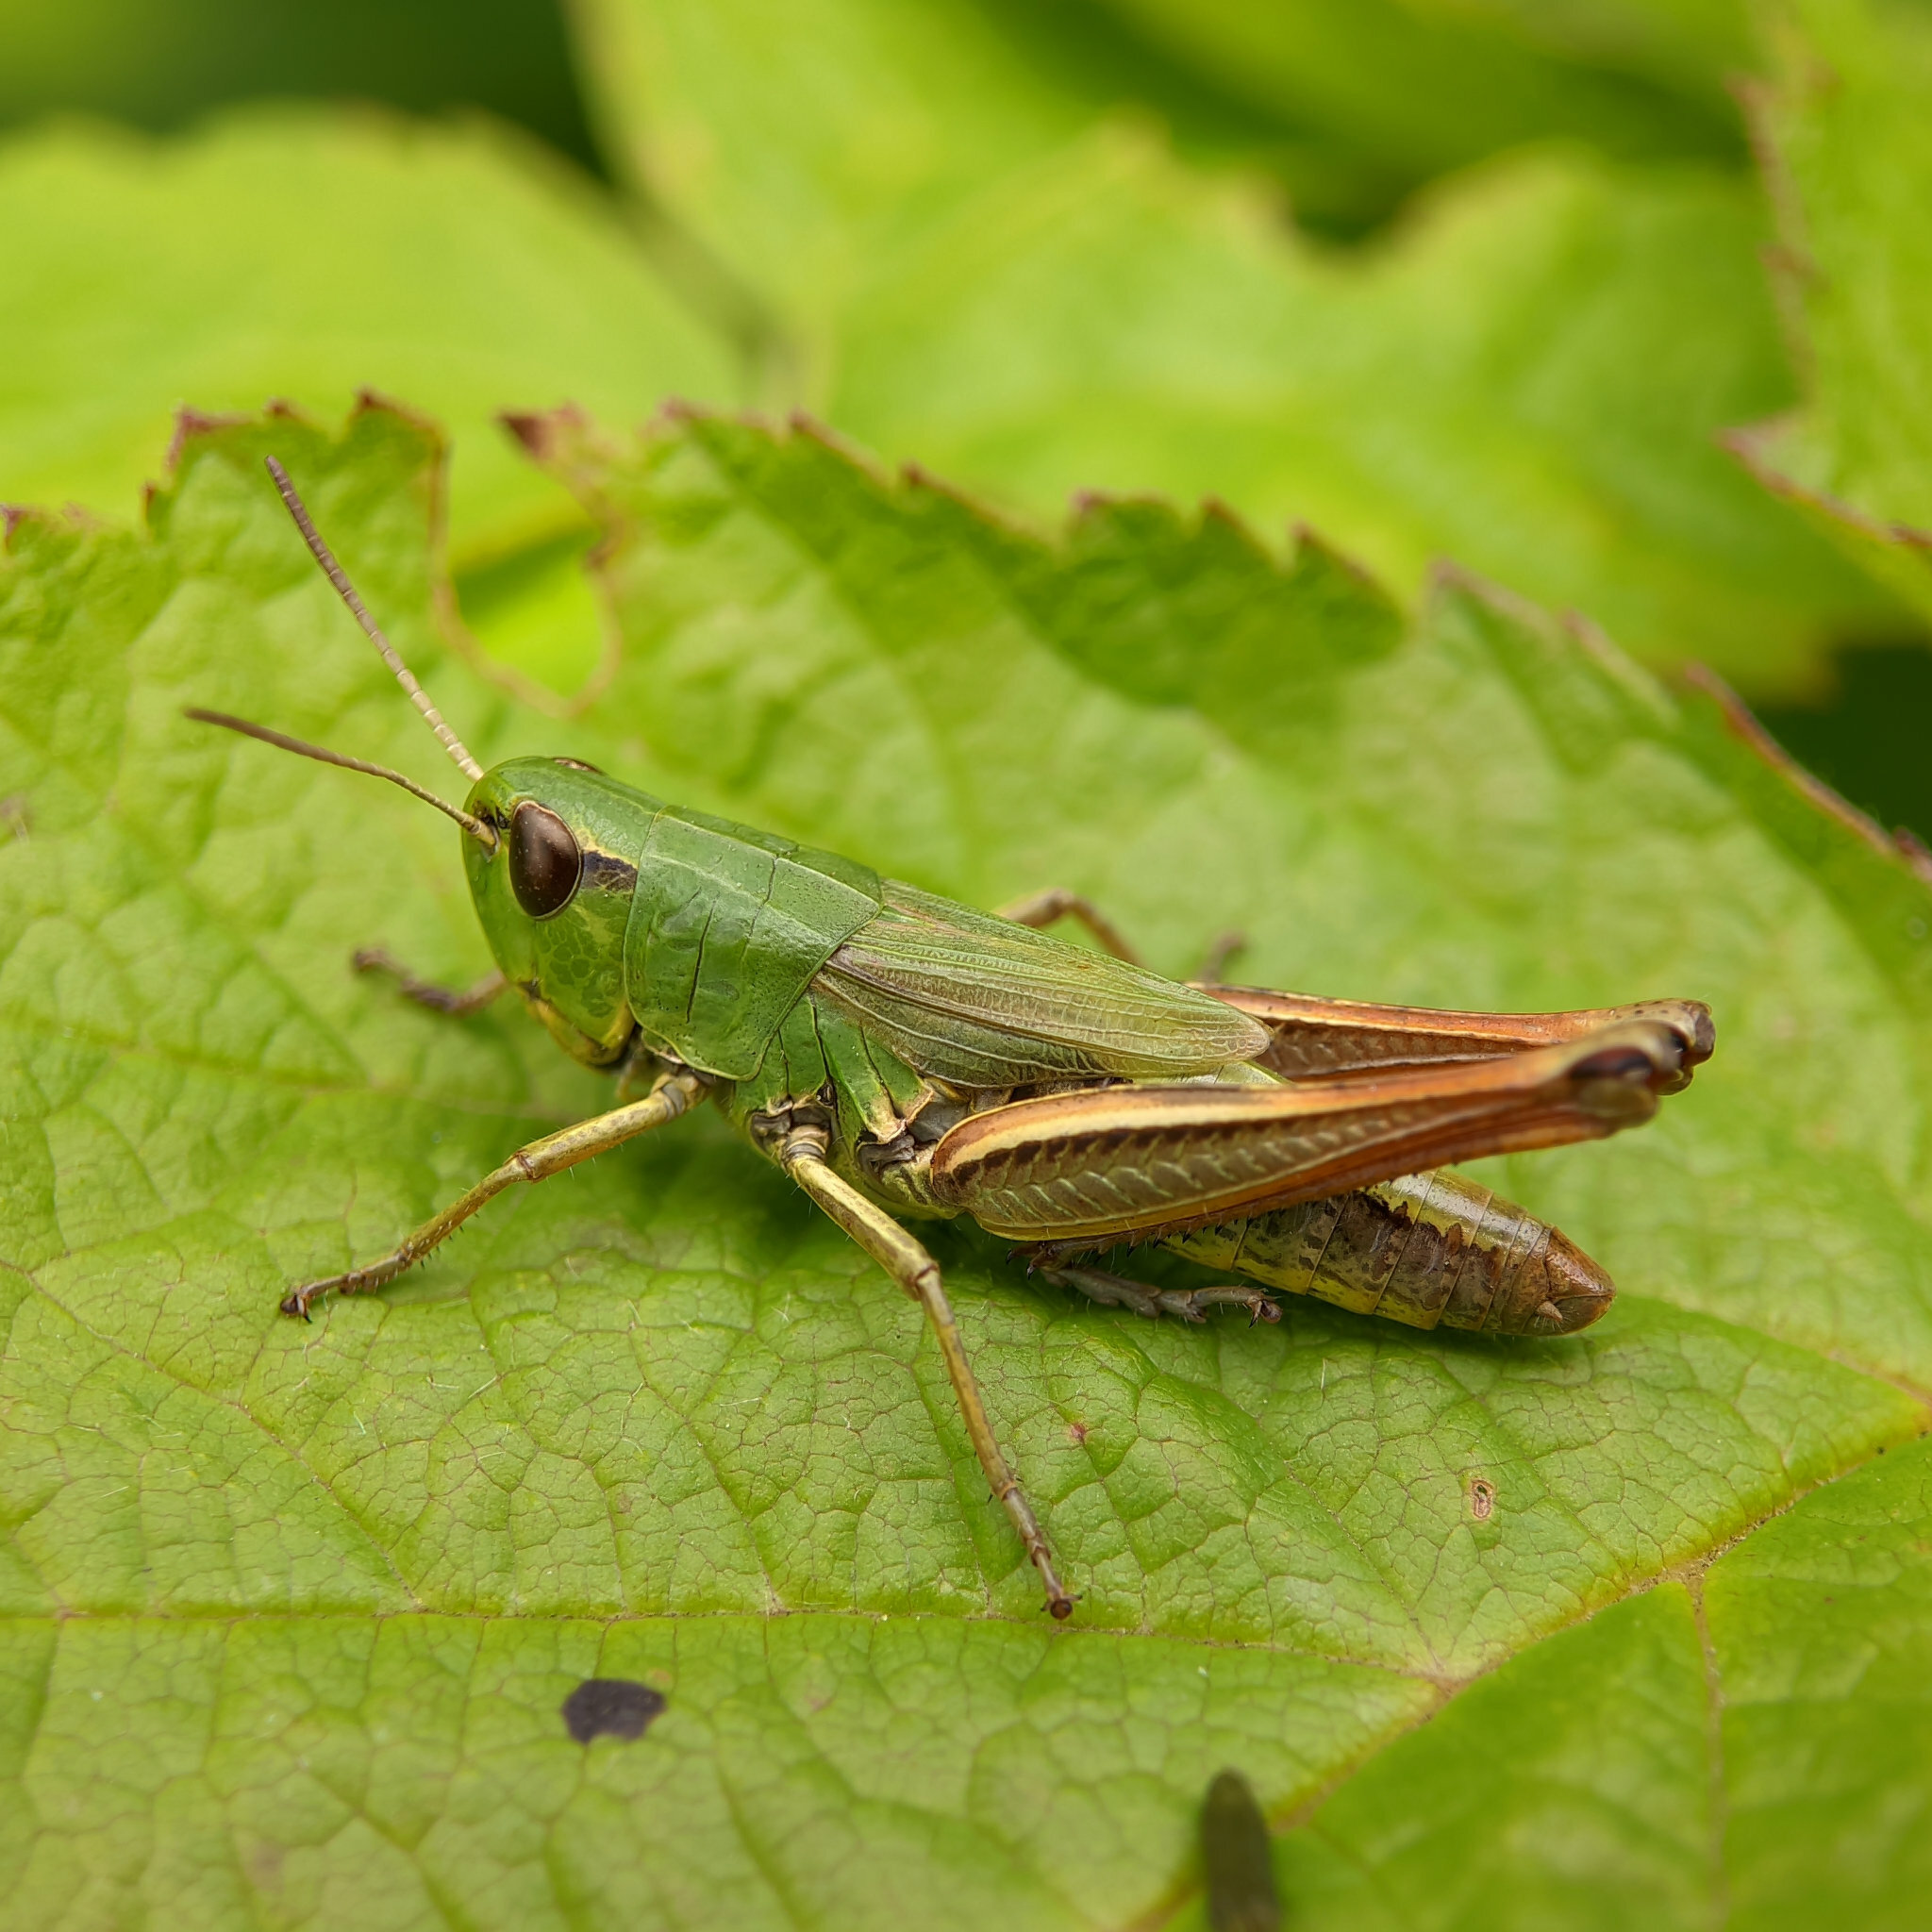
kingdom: Animalia
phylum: Arthropoda
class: Insecta
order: Orthoptera
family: Acrididae
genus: Pseudochorthippus
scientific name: Pseudochorthippus parallelus
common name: Meadow grasshopper
